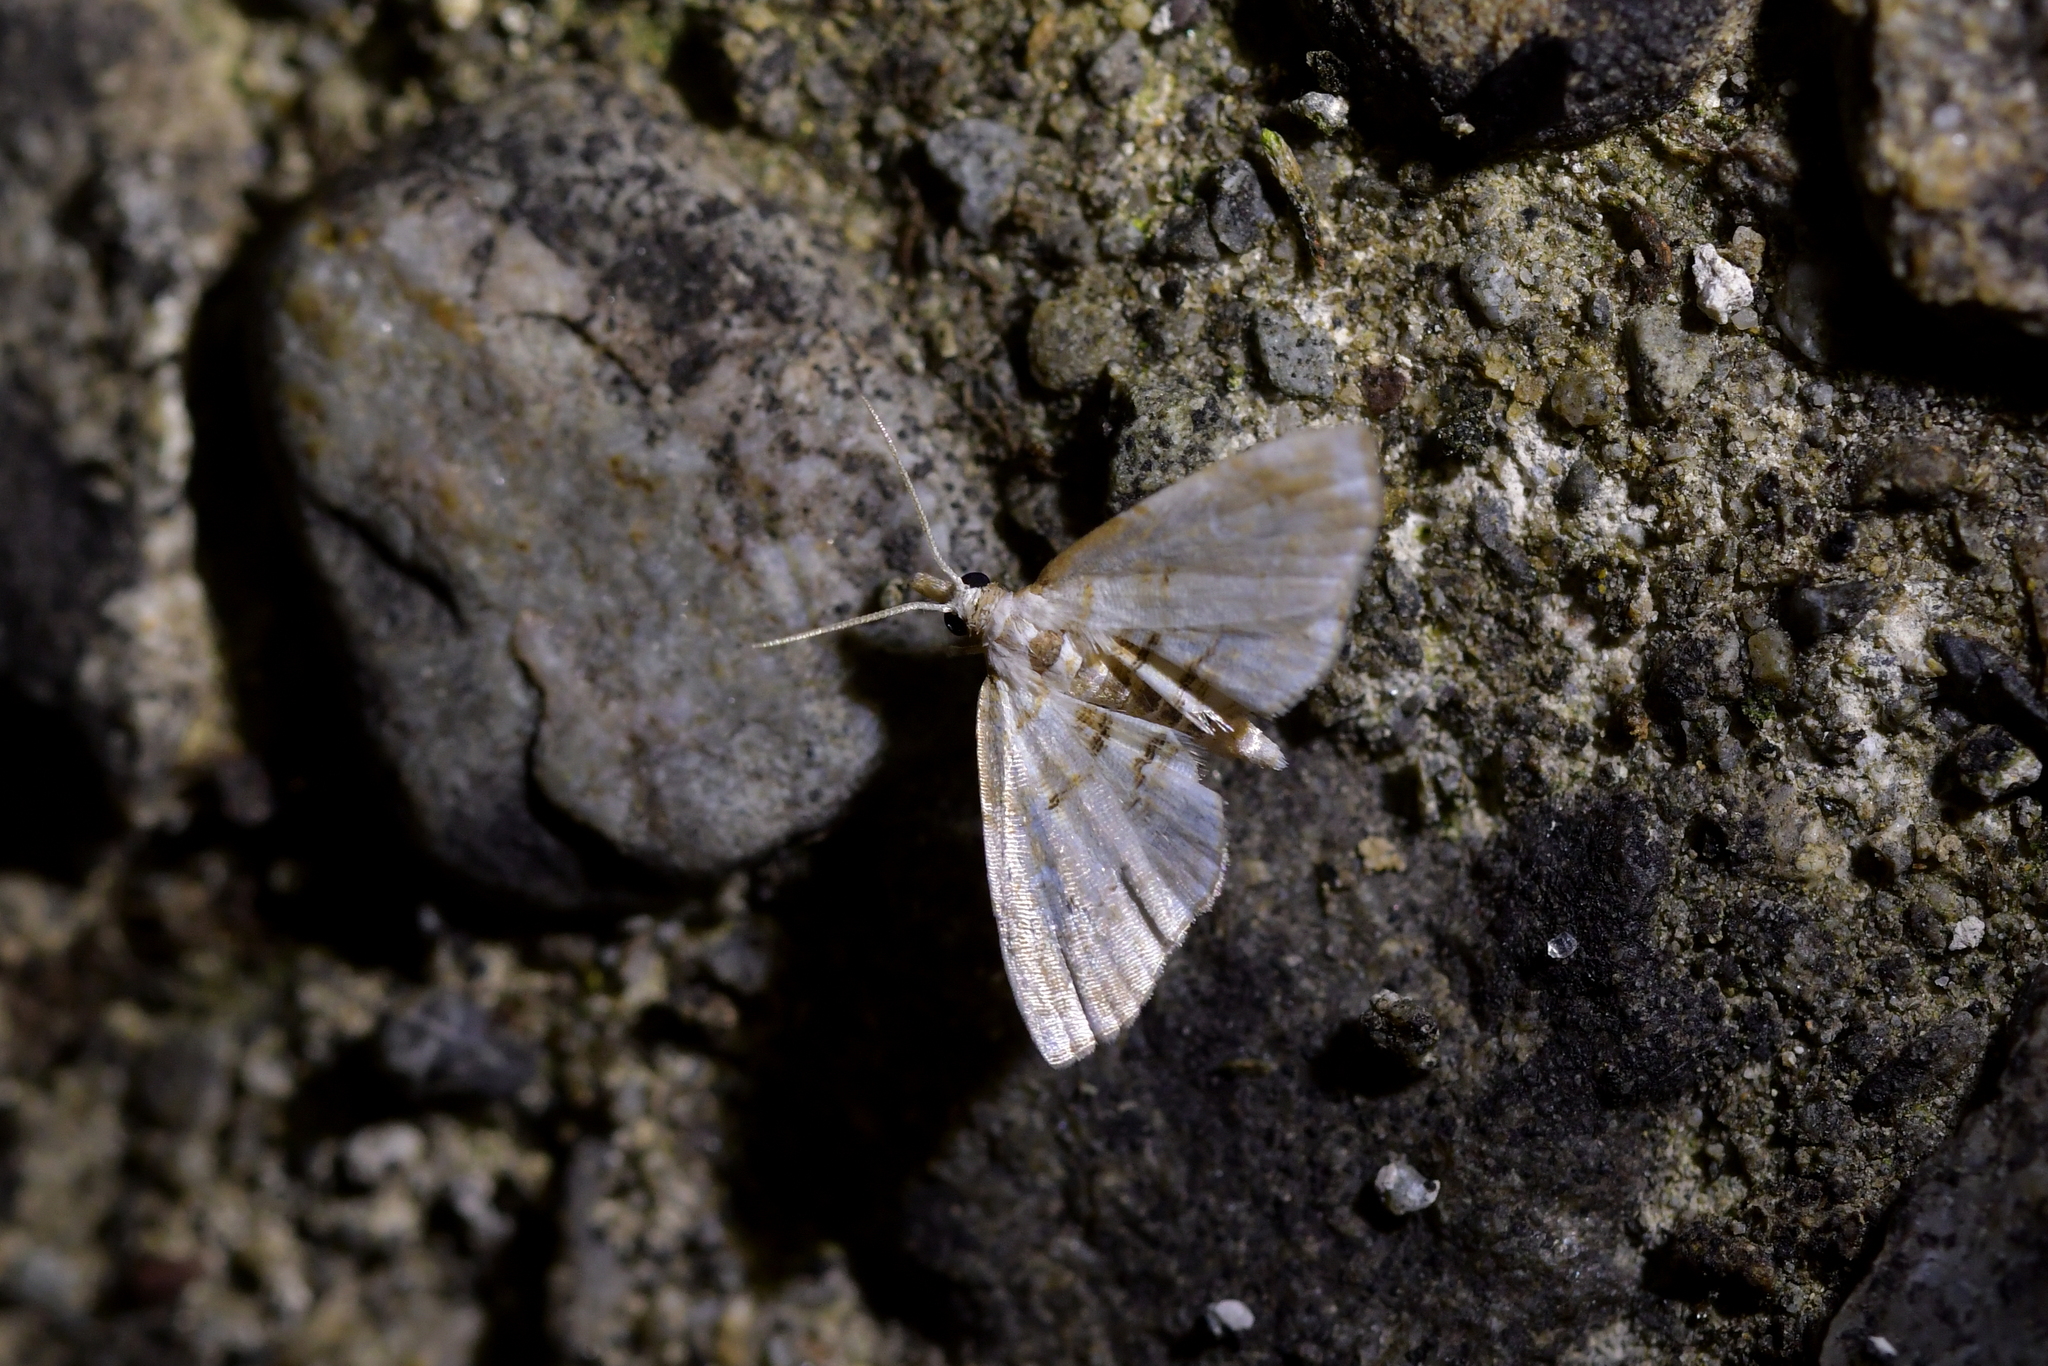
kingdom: Animalia
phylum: Arthropoda
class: Insecta
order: Lepidoptera
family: Crambidae
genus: Trichophysetis
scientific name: Trichophysetis
